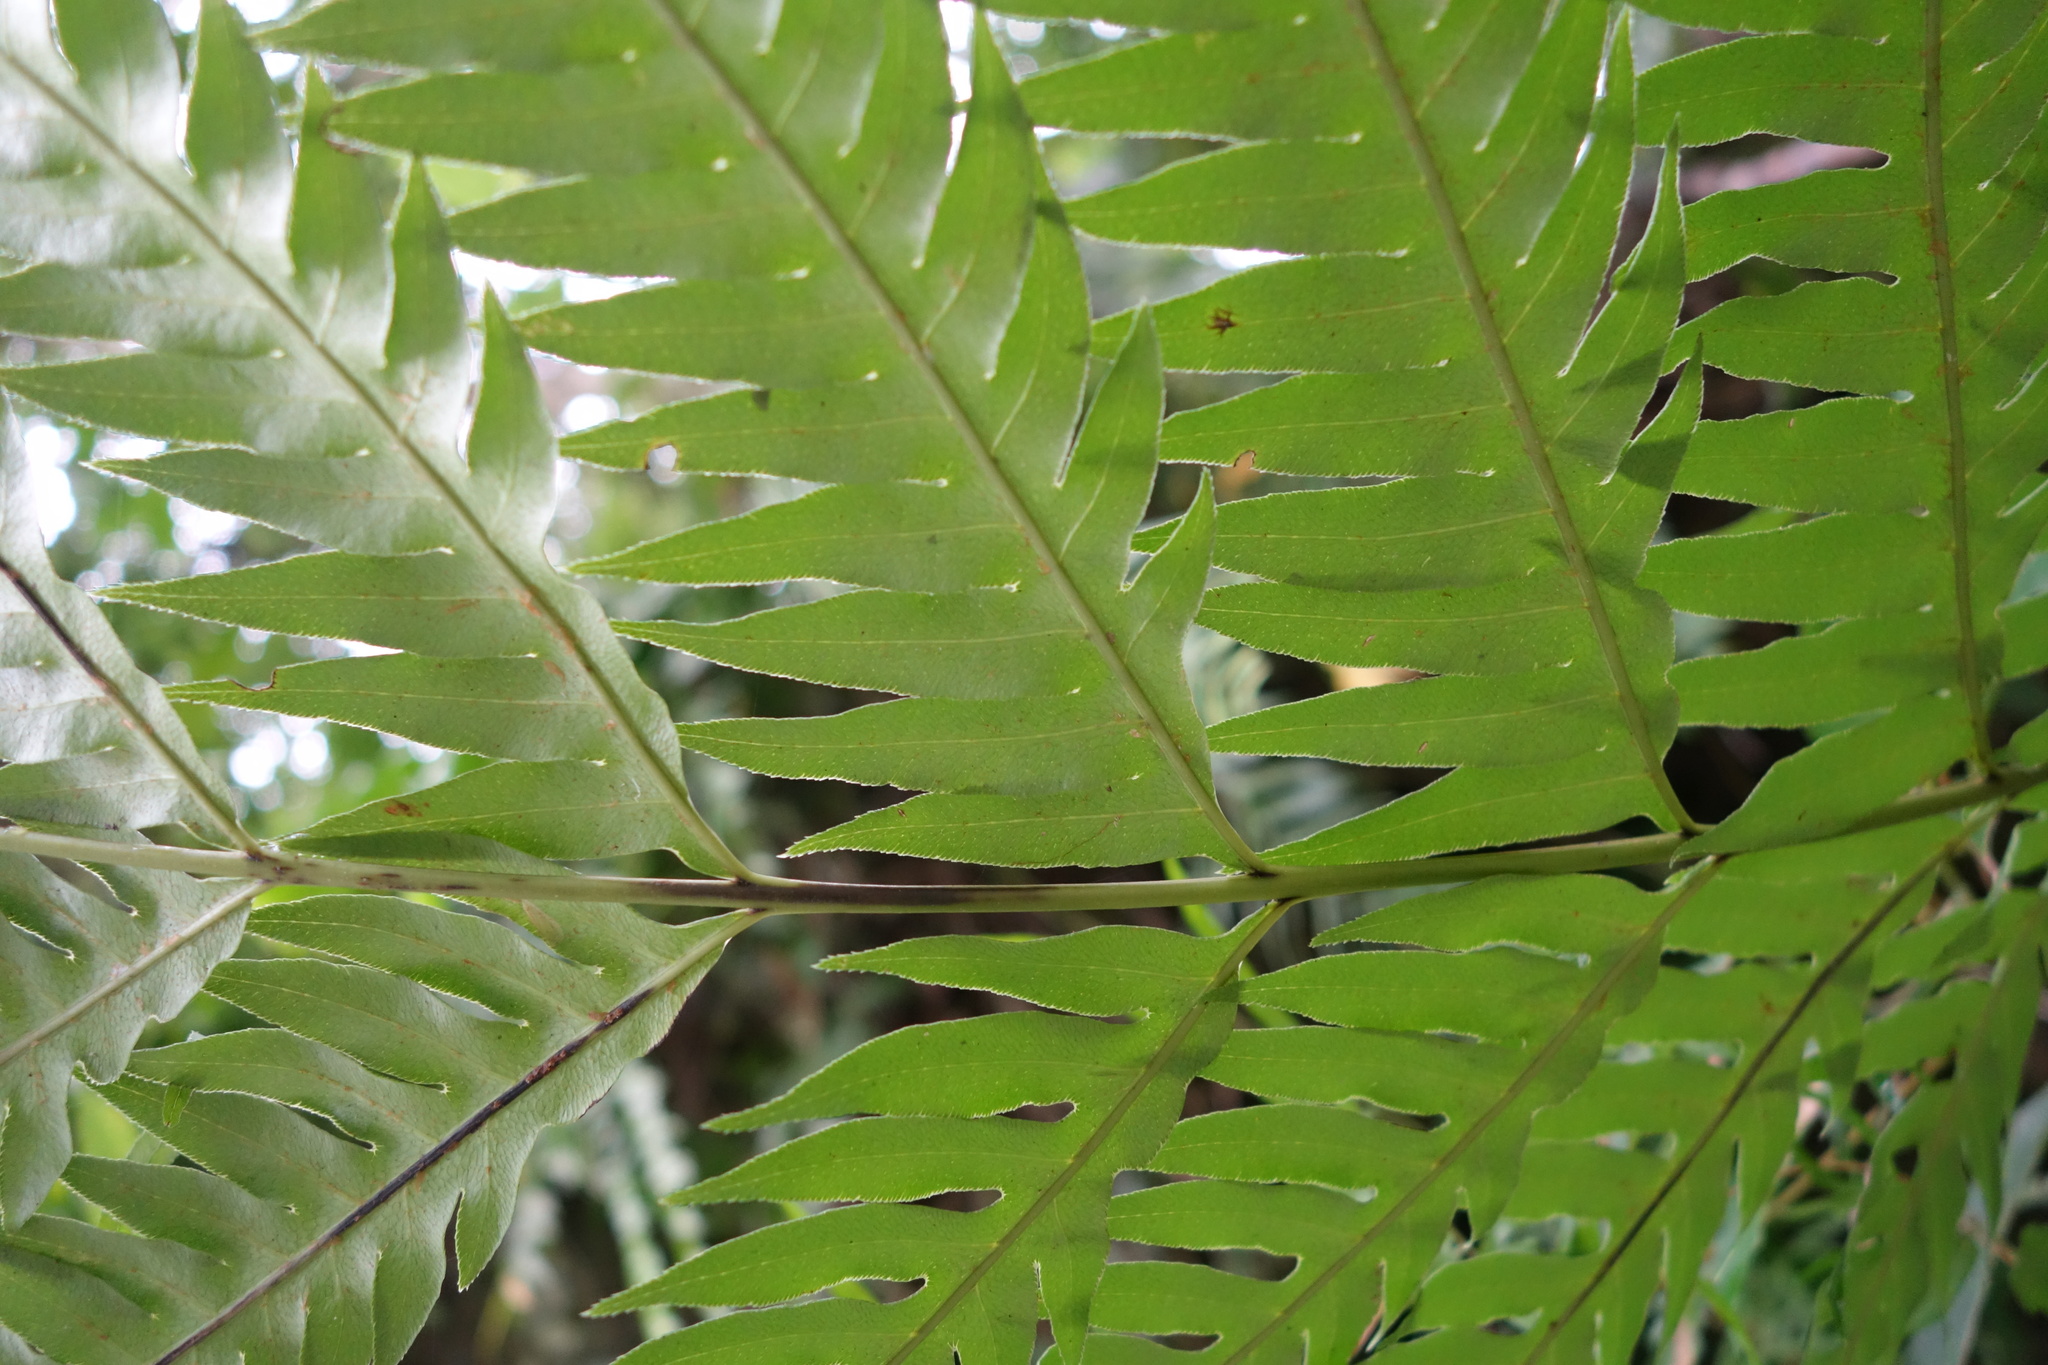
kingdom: Plantae
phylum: Tracheophyta
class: Polypodiopsida
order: Polypodiales
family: Blechnaceae
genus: Woodwardia
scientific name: Woodwardia prolifera
